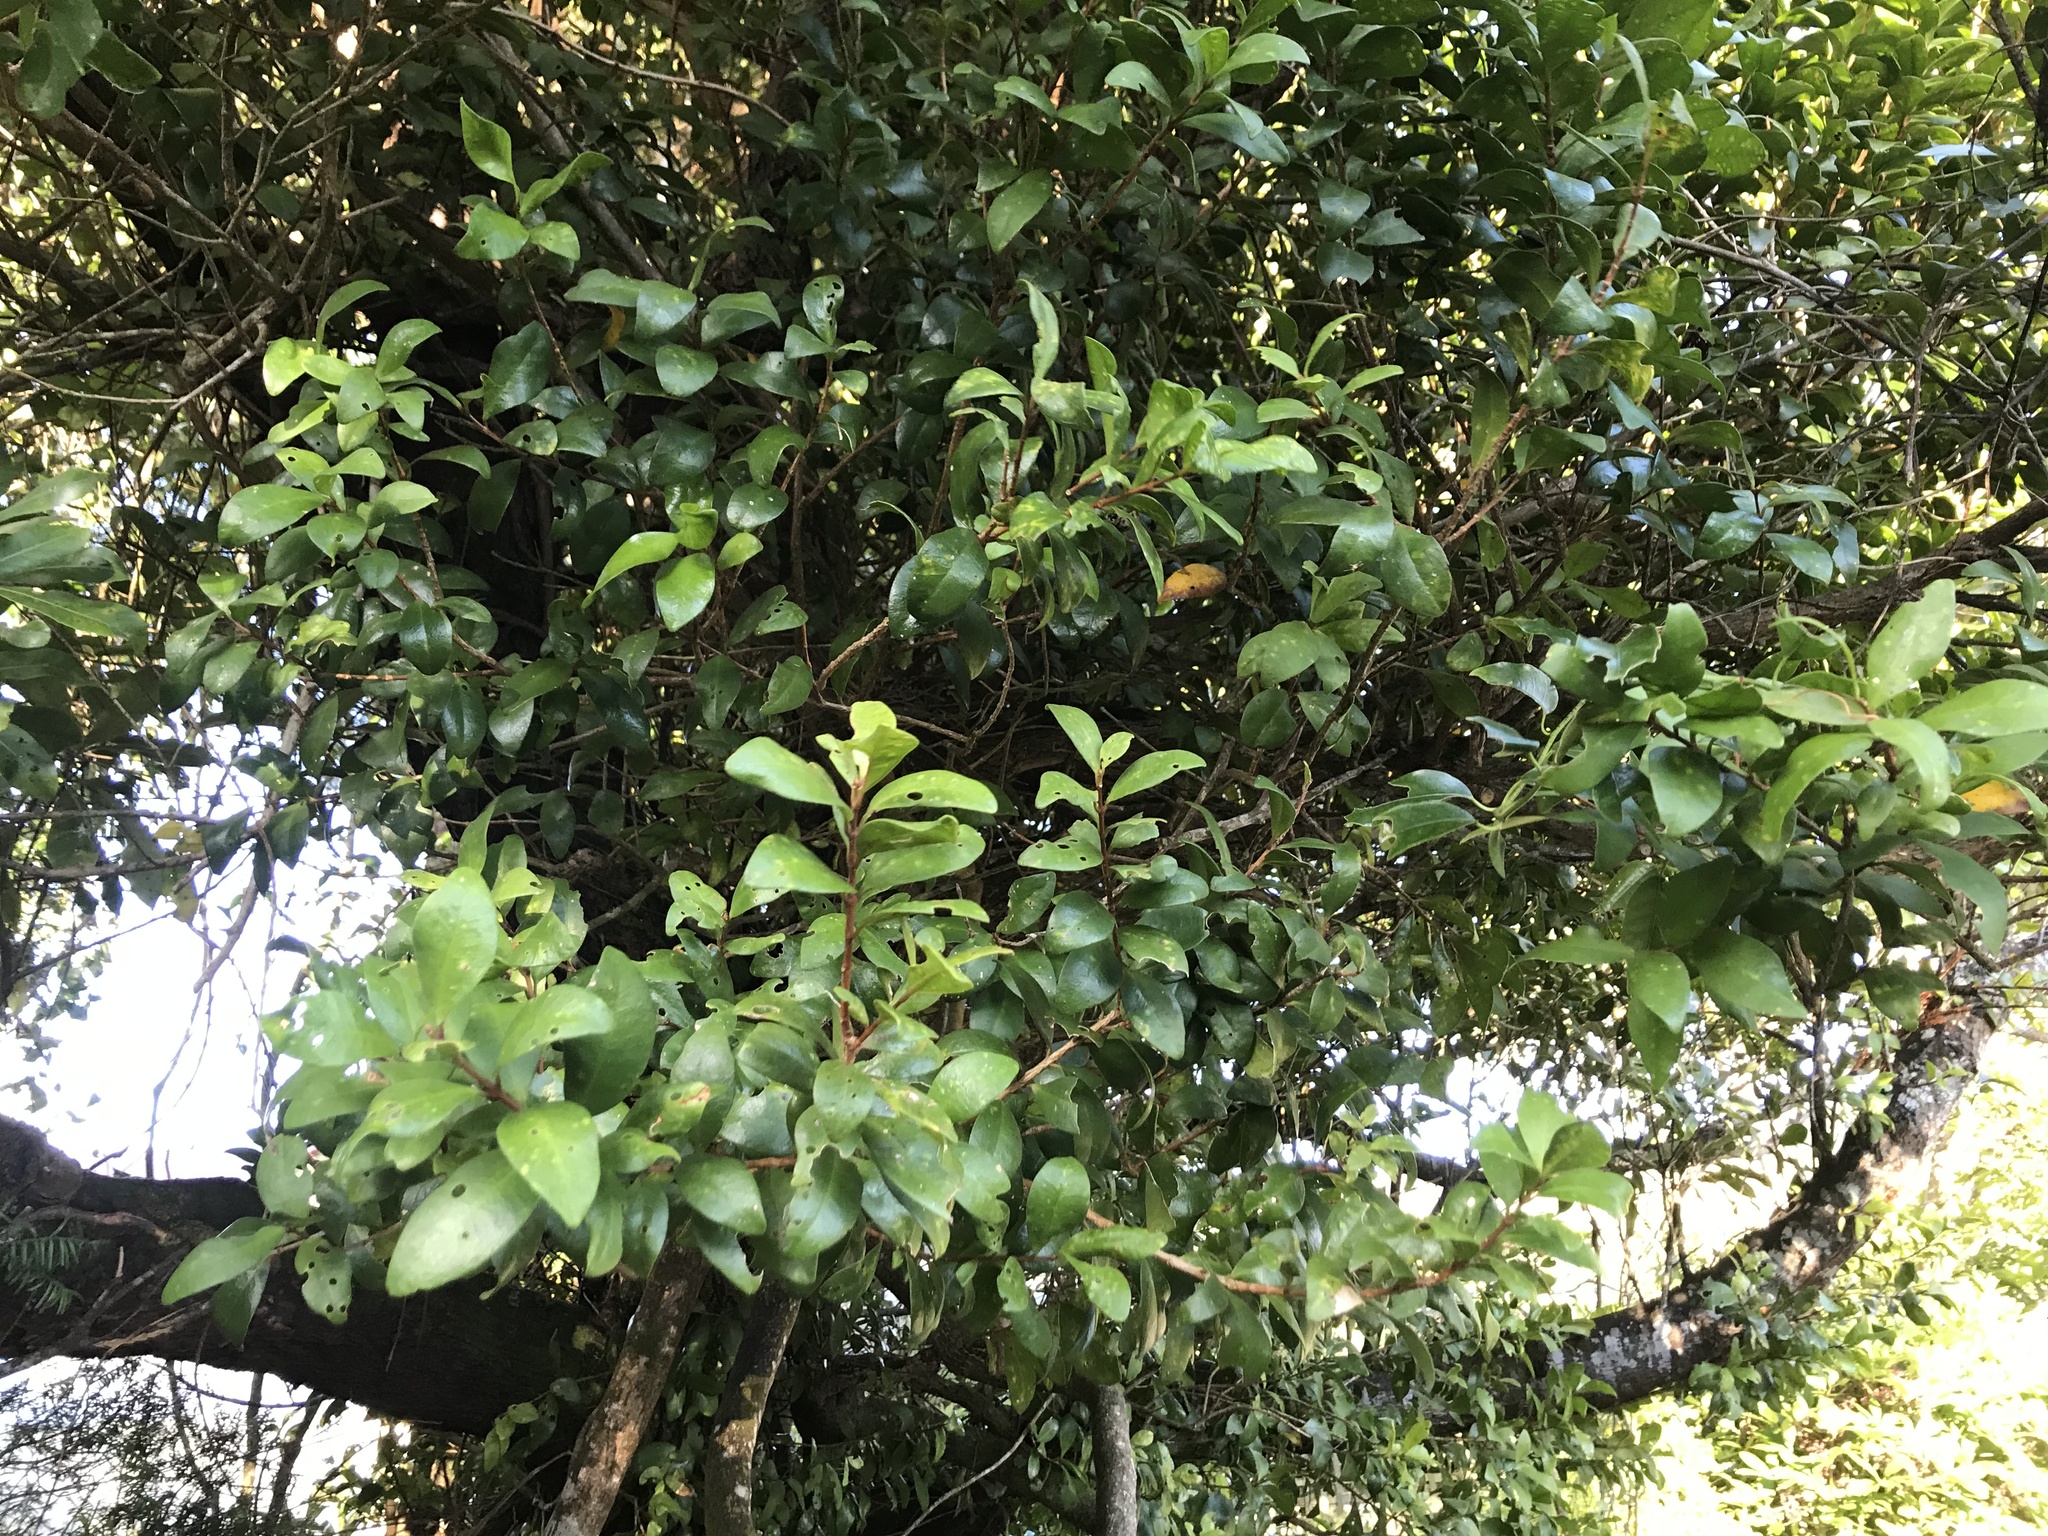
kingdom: Plantae
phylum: Tracheophyta
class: Magnoliopsida
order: Myrtales
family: Myrtaceae
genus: Metrosideros
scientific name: Metrosideros fulgens
